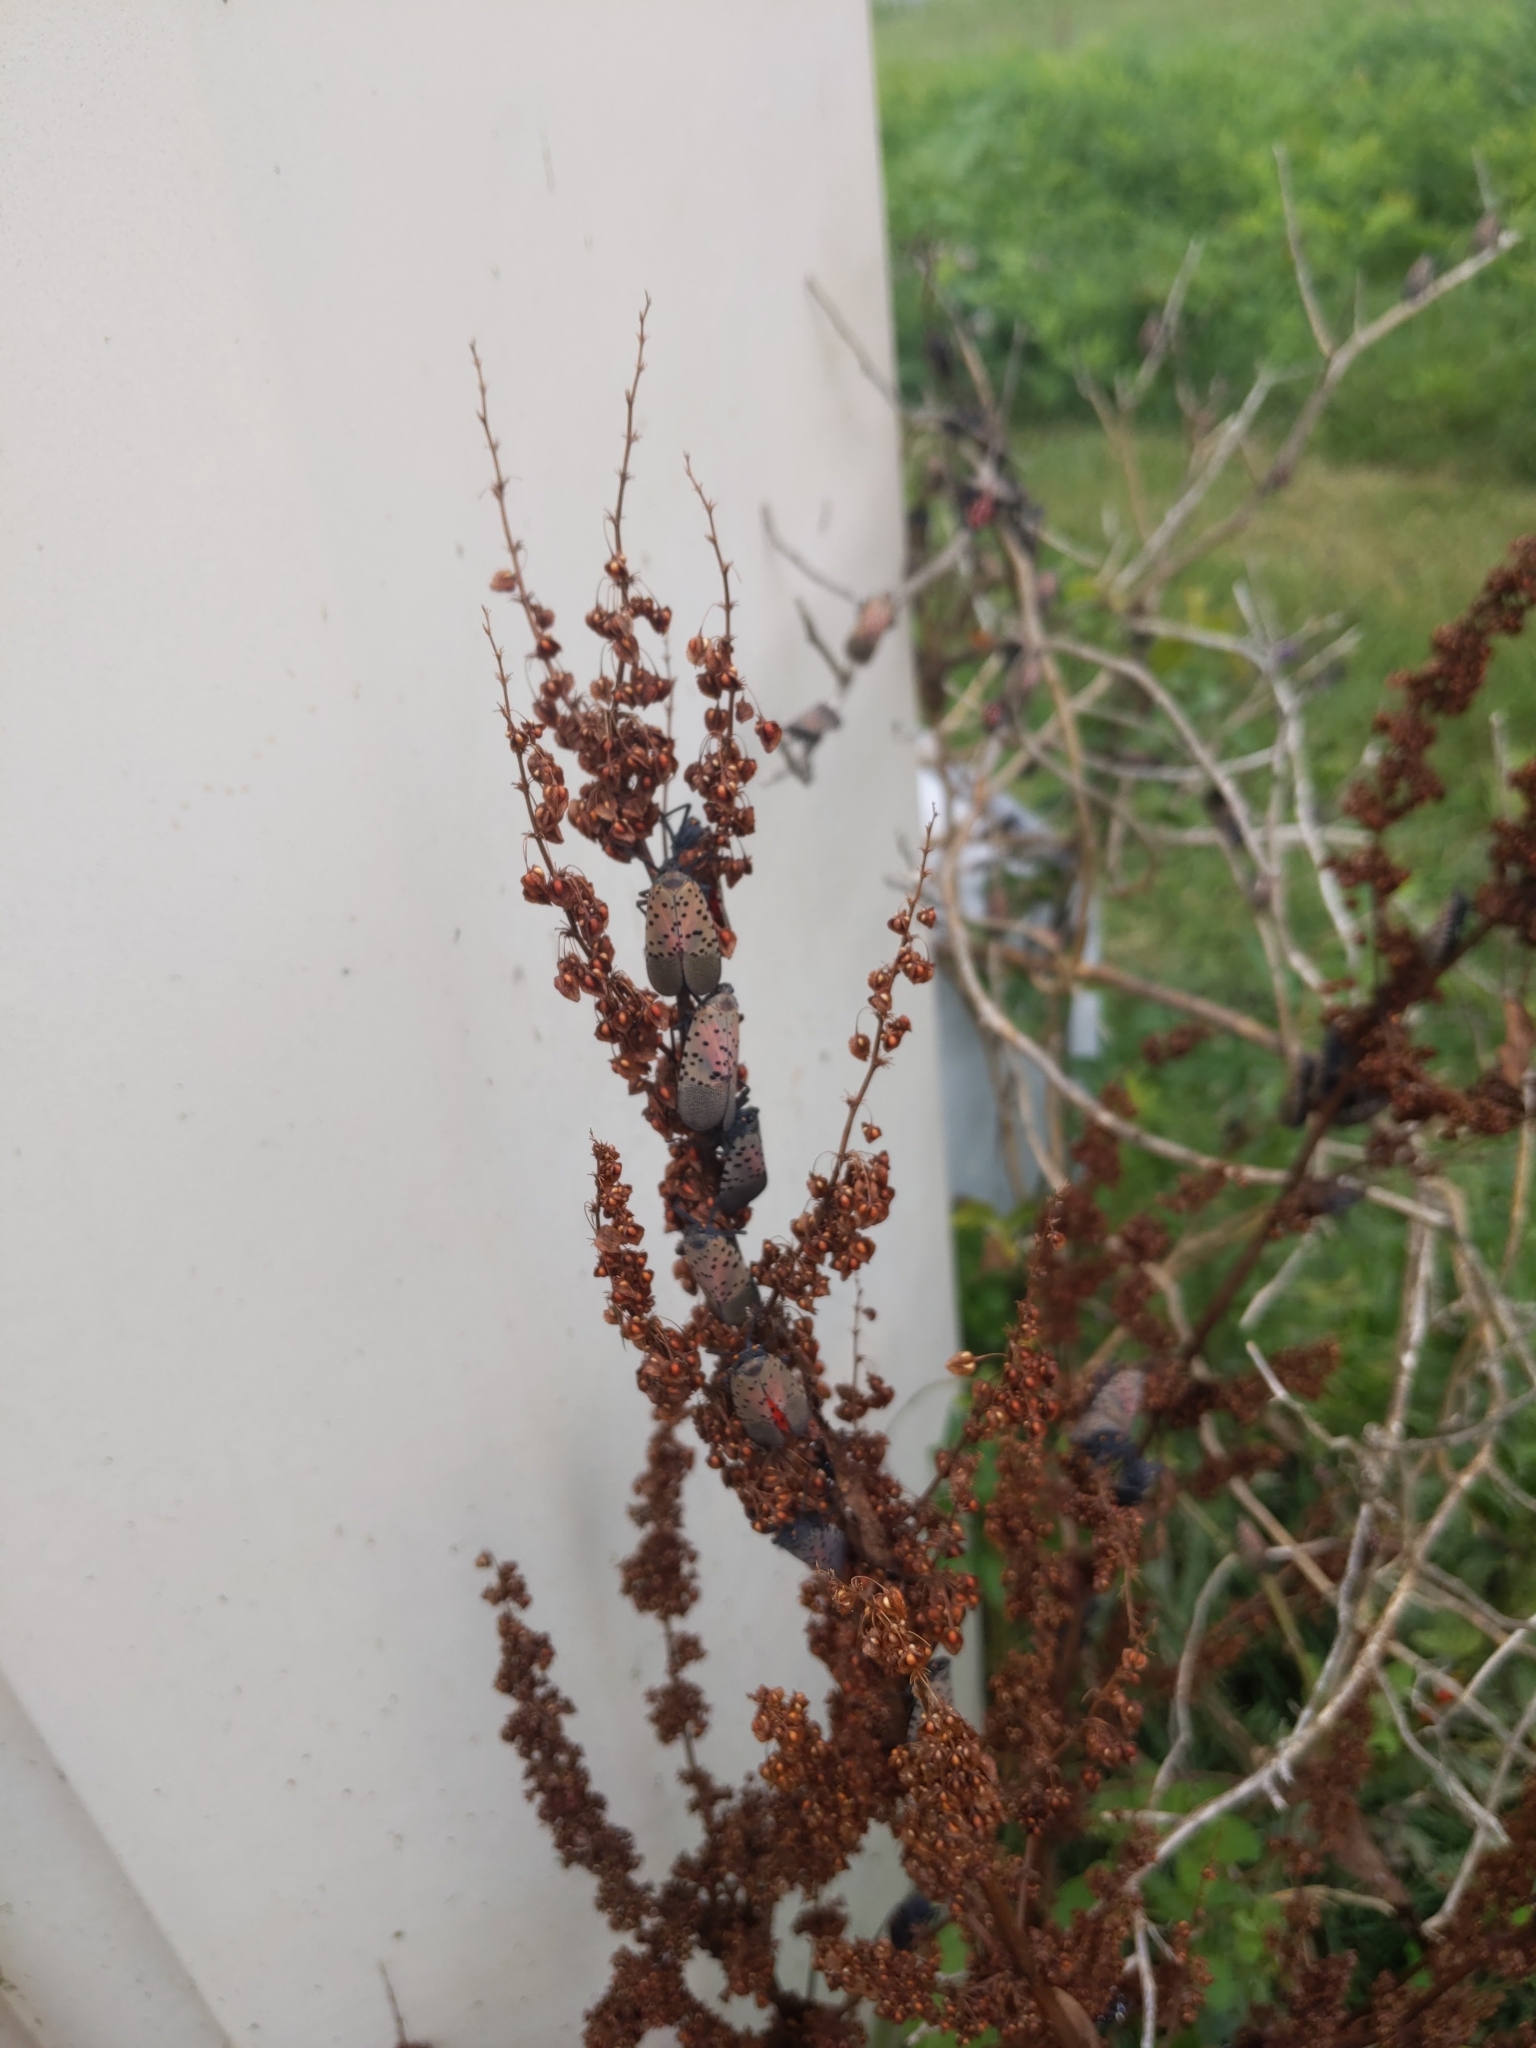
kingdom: Animalia
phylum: Arthropoda
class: Insecta
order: Hemiptera
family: Fulgoridae
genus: Lycorma
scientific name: Lycorma delicatula
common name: Spotted lanternfly
